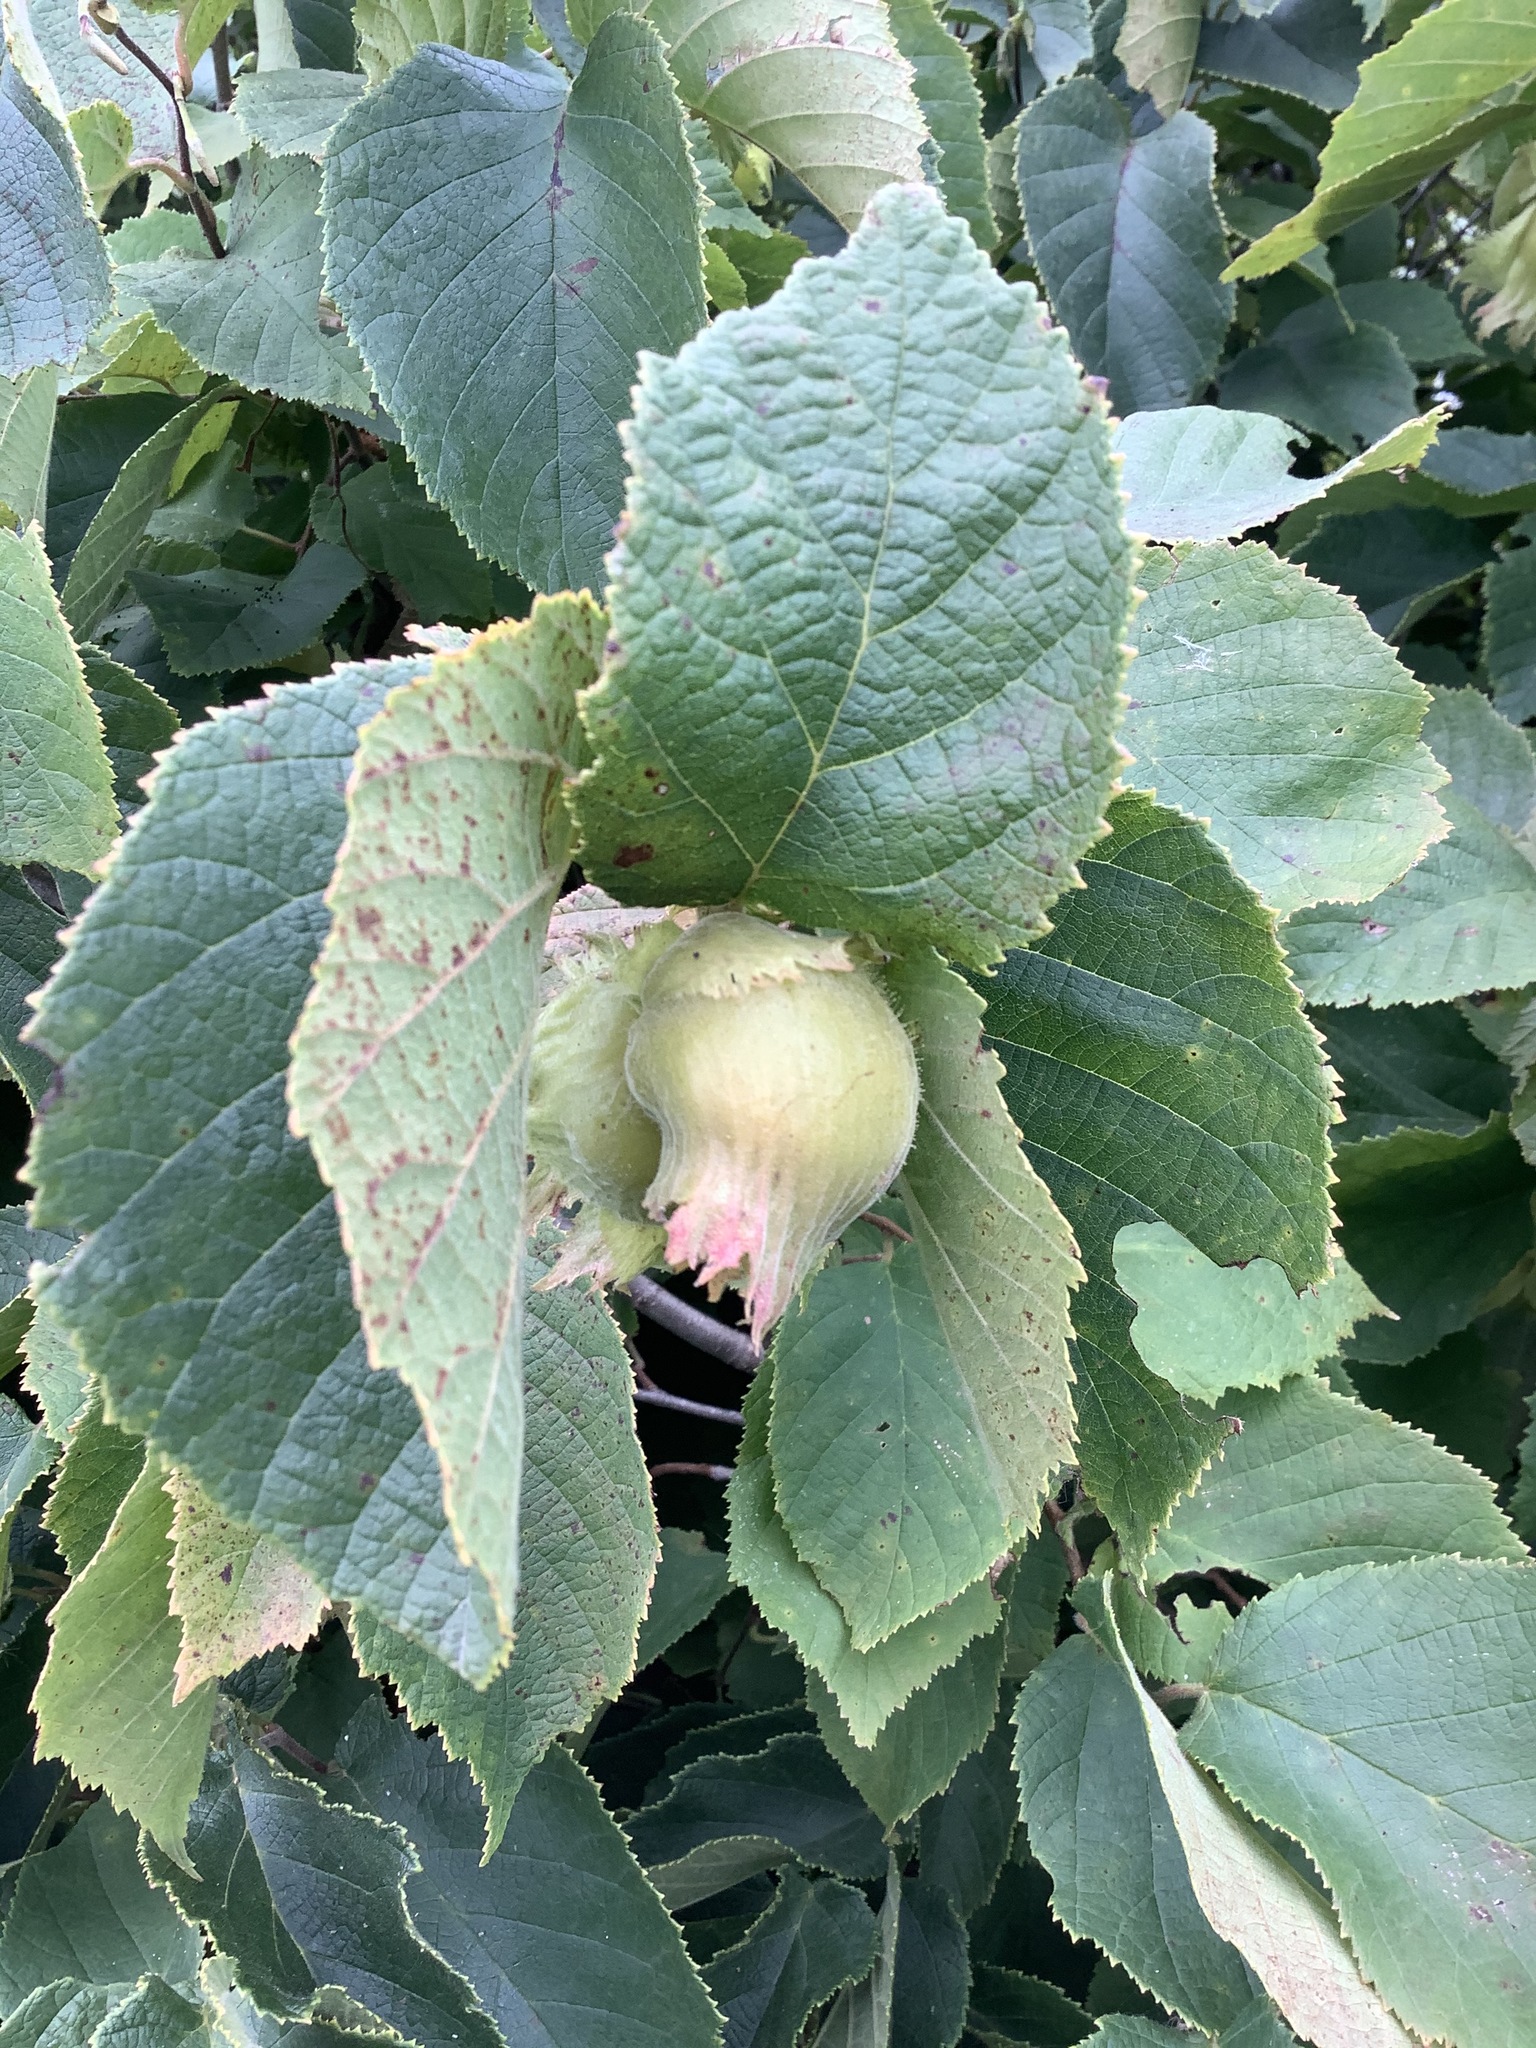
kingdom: Plantae
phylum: Tracheophyta
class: Magnoliopsida
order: Fagales
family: Betulaceae
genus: Corylus
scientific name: Corylus americana
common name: American hazel
